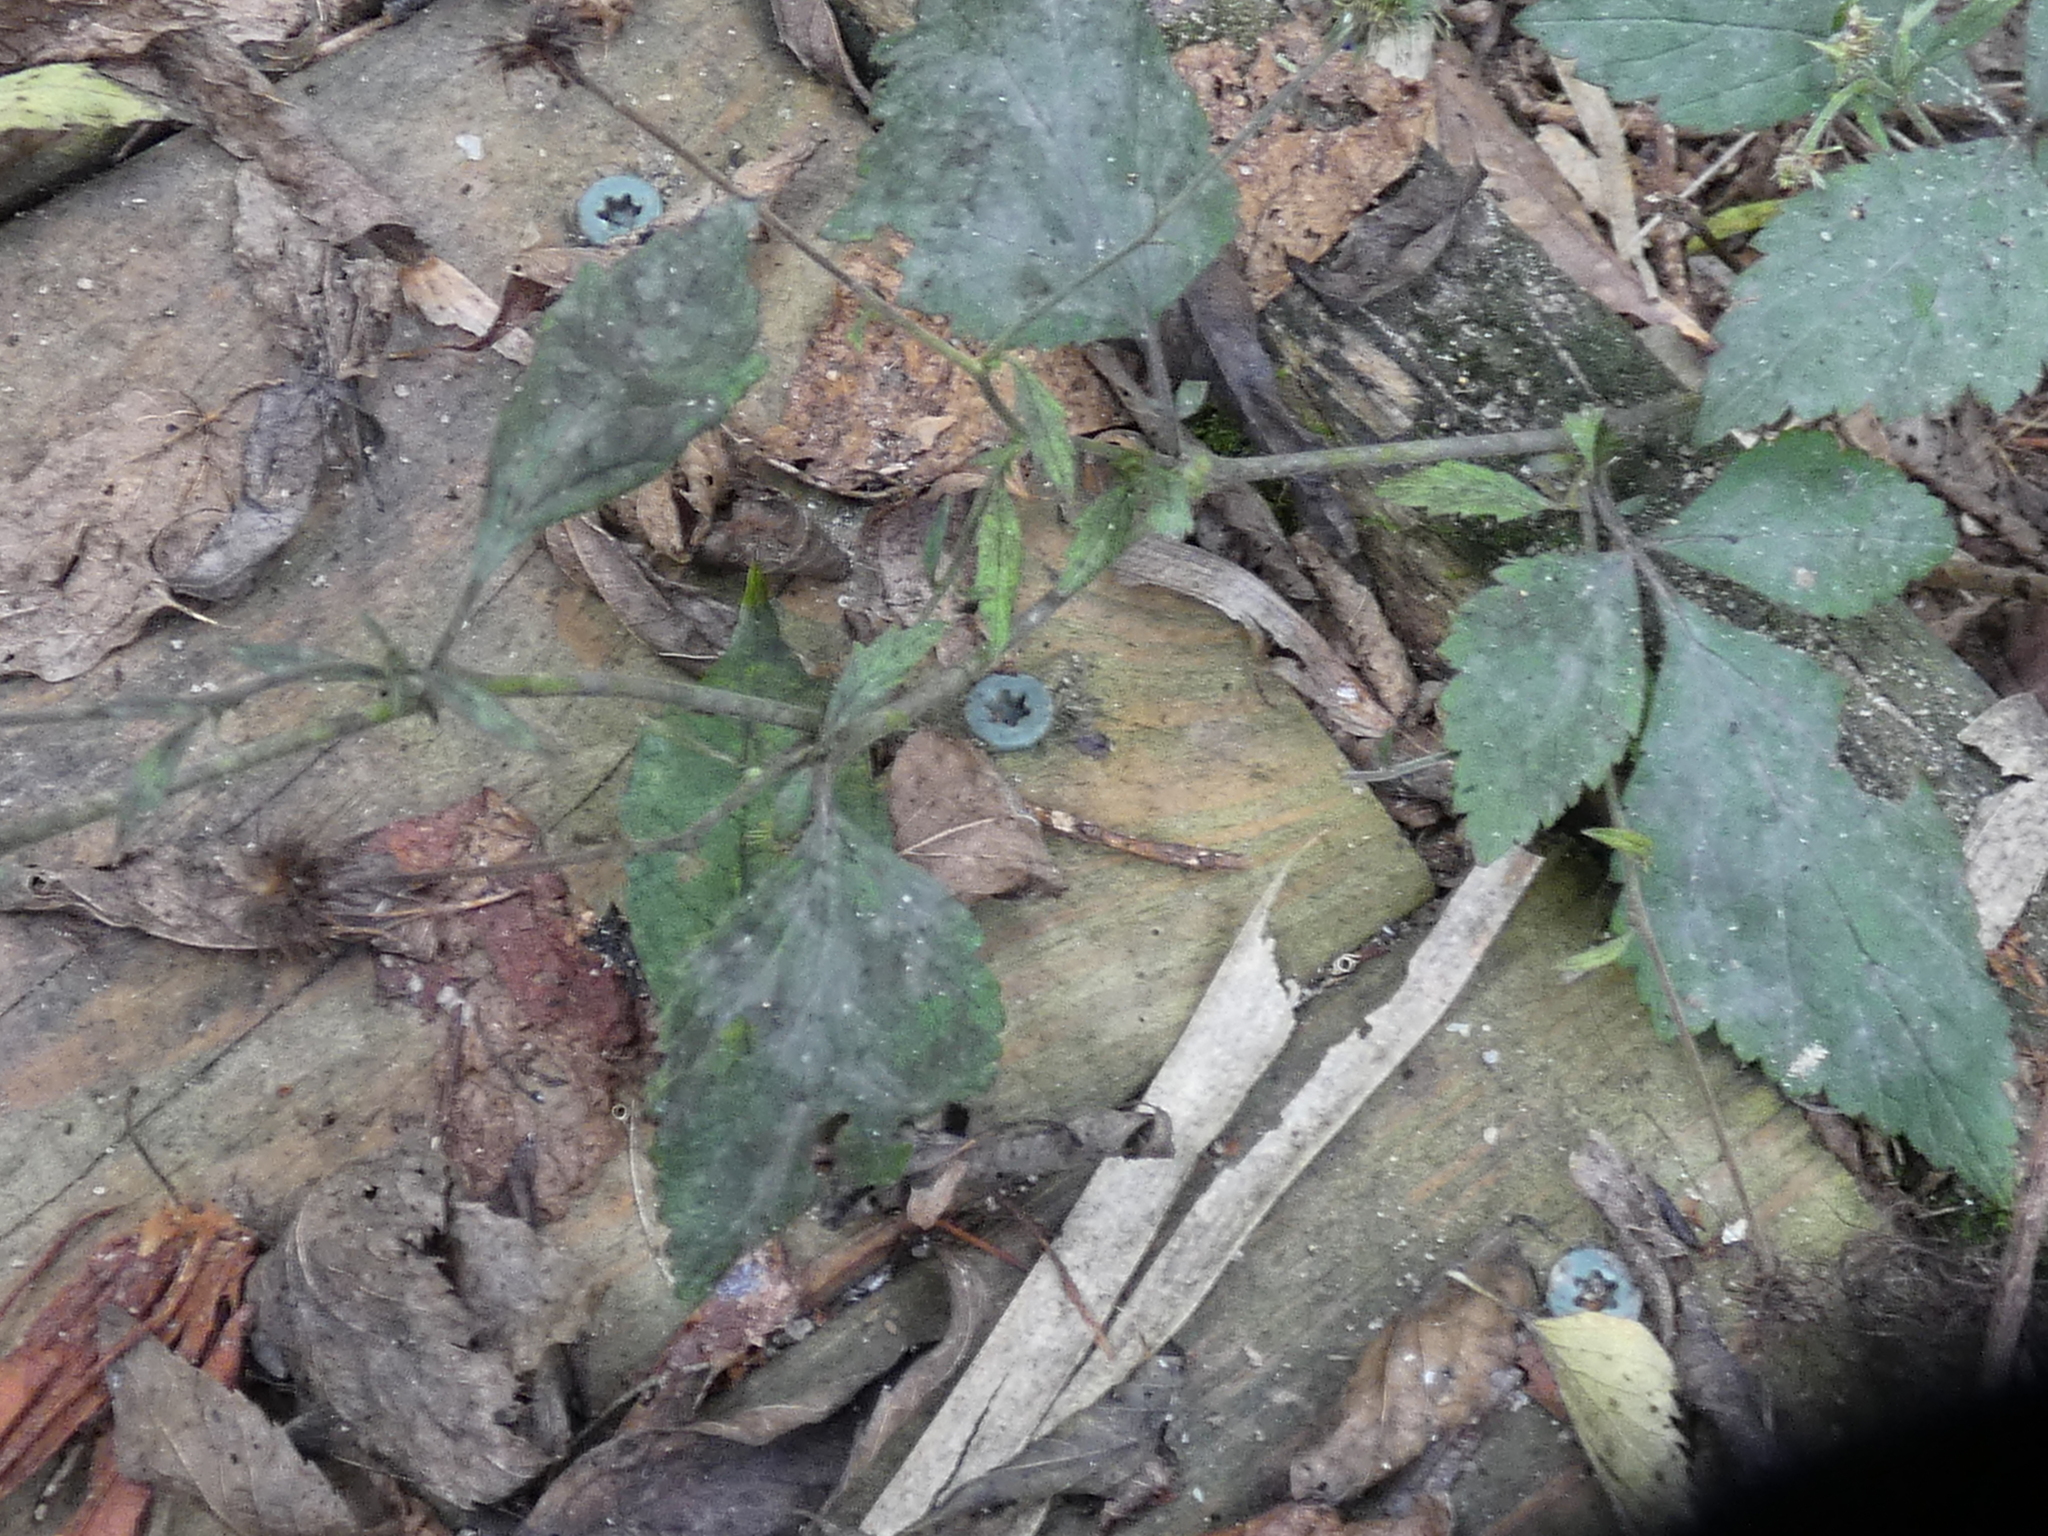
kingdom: Plantae
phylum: Tracheophyta
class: Magnoliopsida
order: Rosales
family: Rosaceae
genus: Geum
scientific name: Geum canadense
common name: White avens
